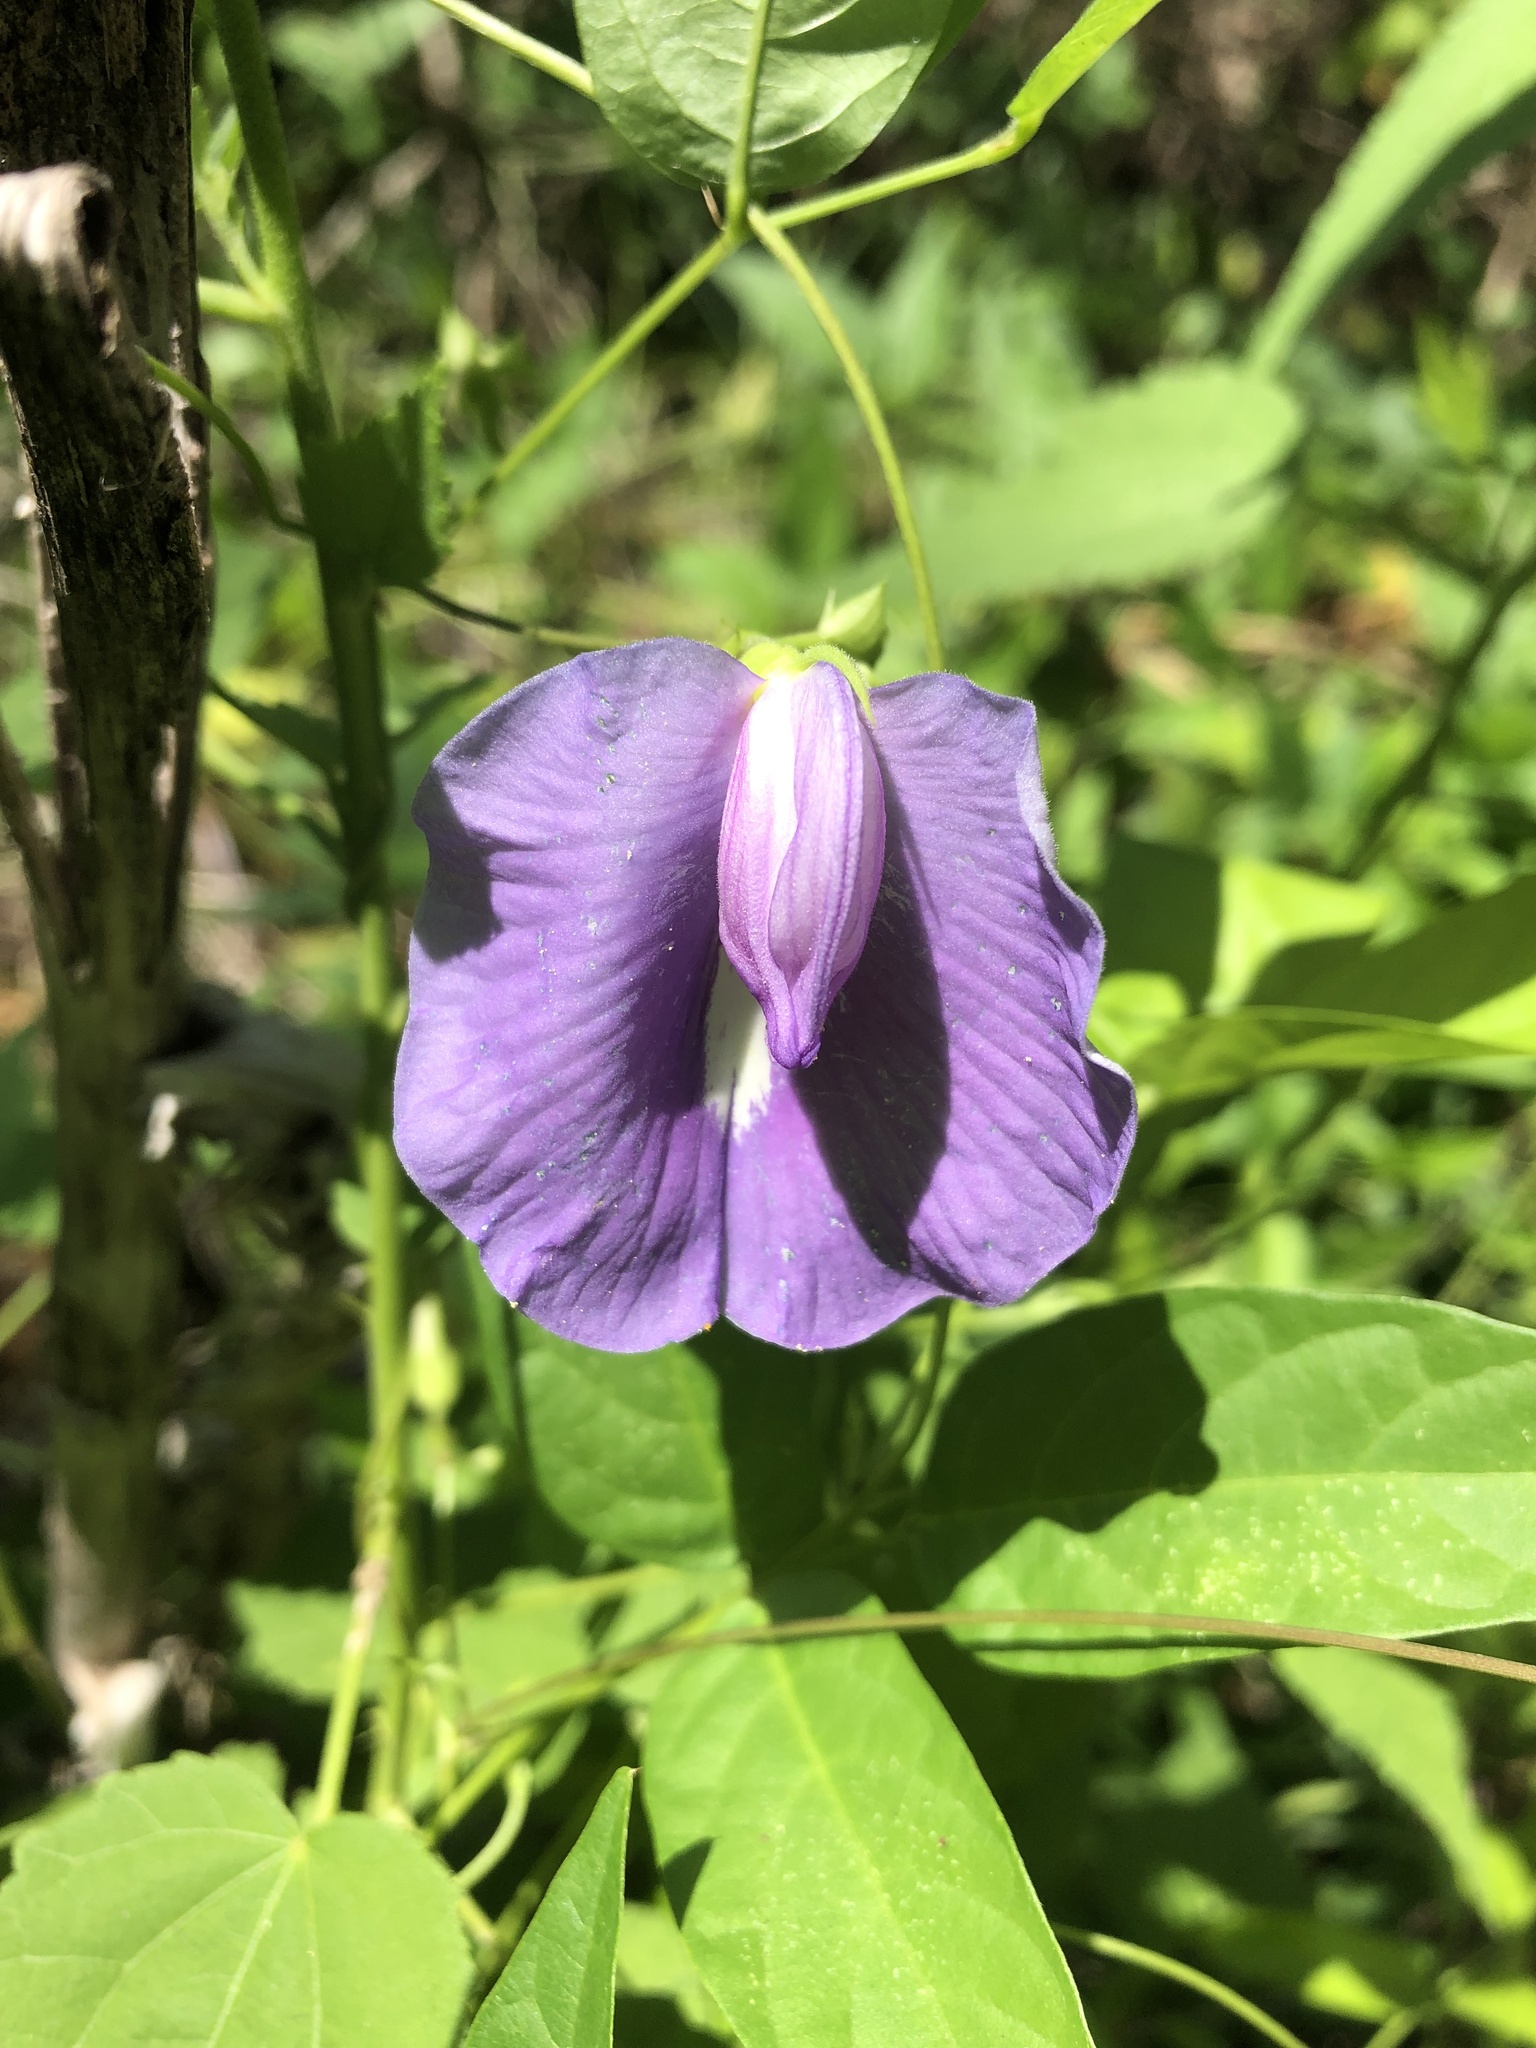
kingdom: Plantae
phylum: Tracheophyta
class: Magnoliopsida
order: Fabales
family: Fabaceae
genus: Centrosema
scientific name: Centrosema virginianum
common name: Butterfly-pea
